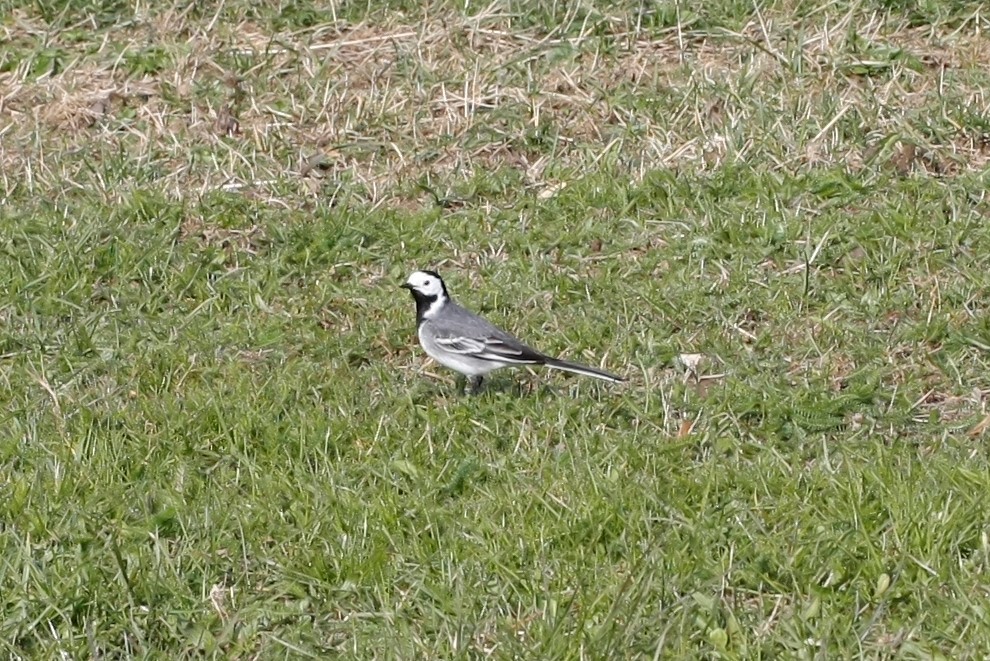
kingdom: Animalia
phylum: Chordata
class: Aves
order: Passeriformes
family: Motacillidae
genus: Motacilla
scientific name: Motacilla alba
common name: White wagtail
